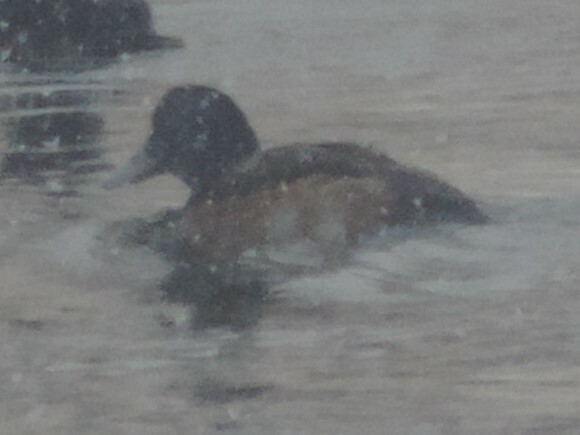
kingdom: Animalia
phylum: Chordata
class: Aves
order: Anseriformes
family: Anatidae
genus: Aythya
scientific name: Aythya marila
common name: Greater scaup
